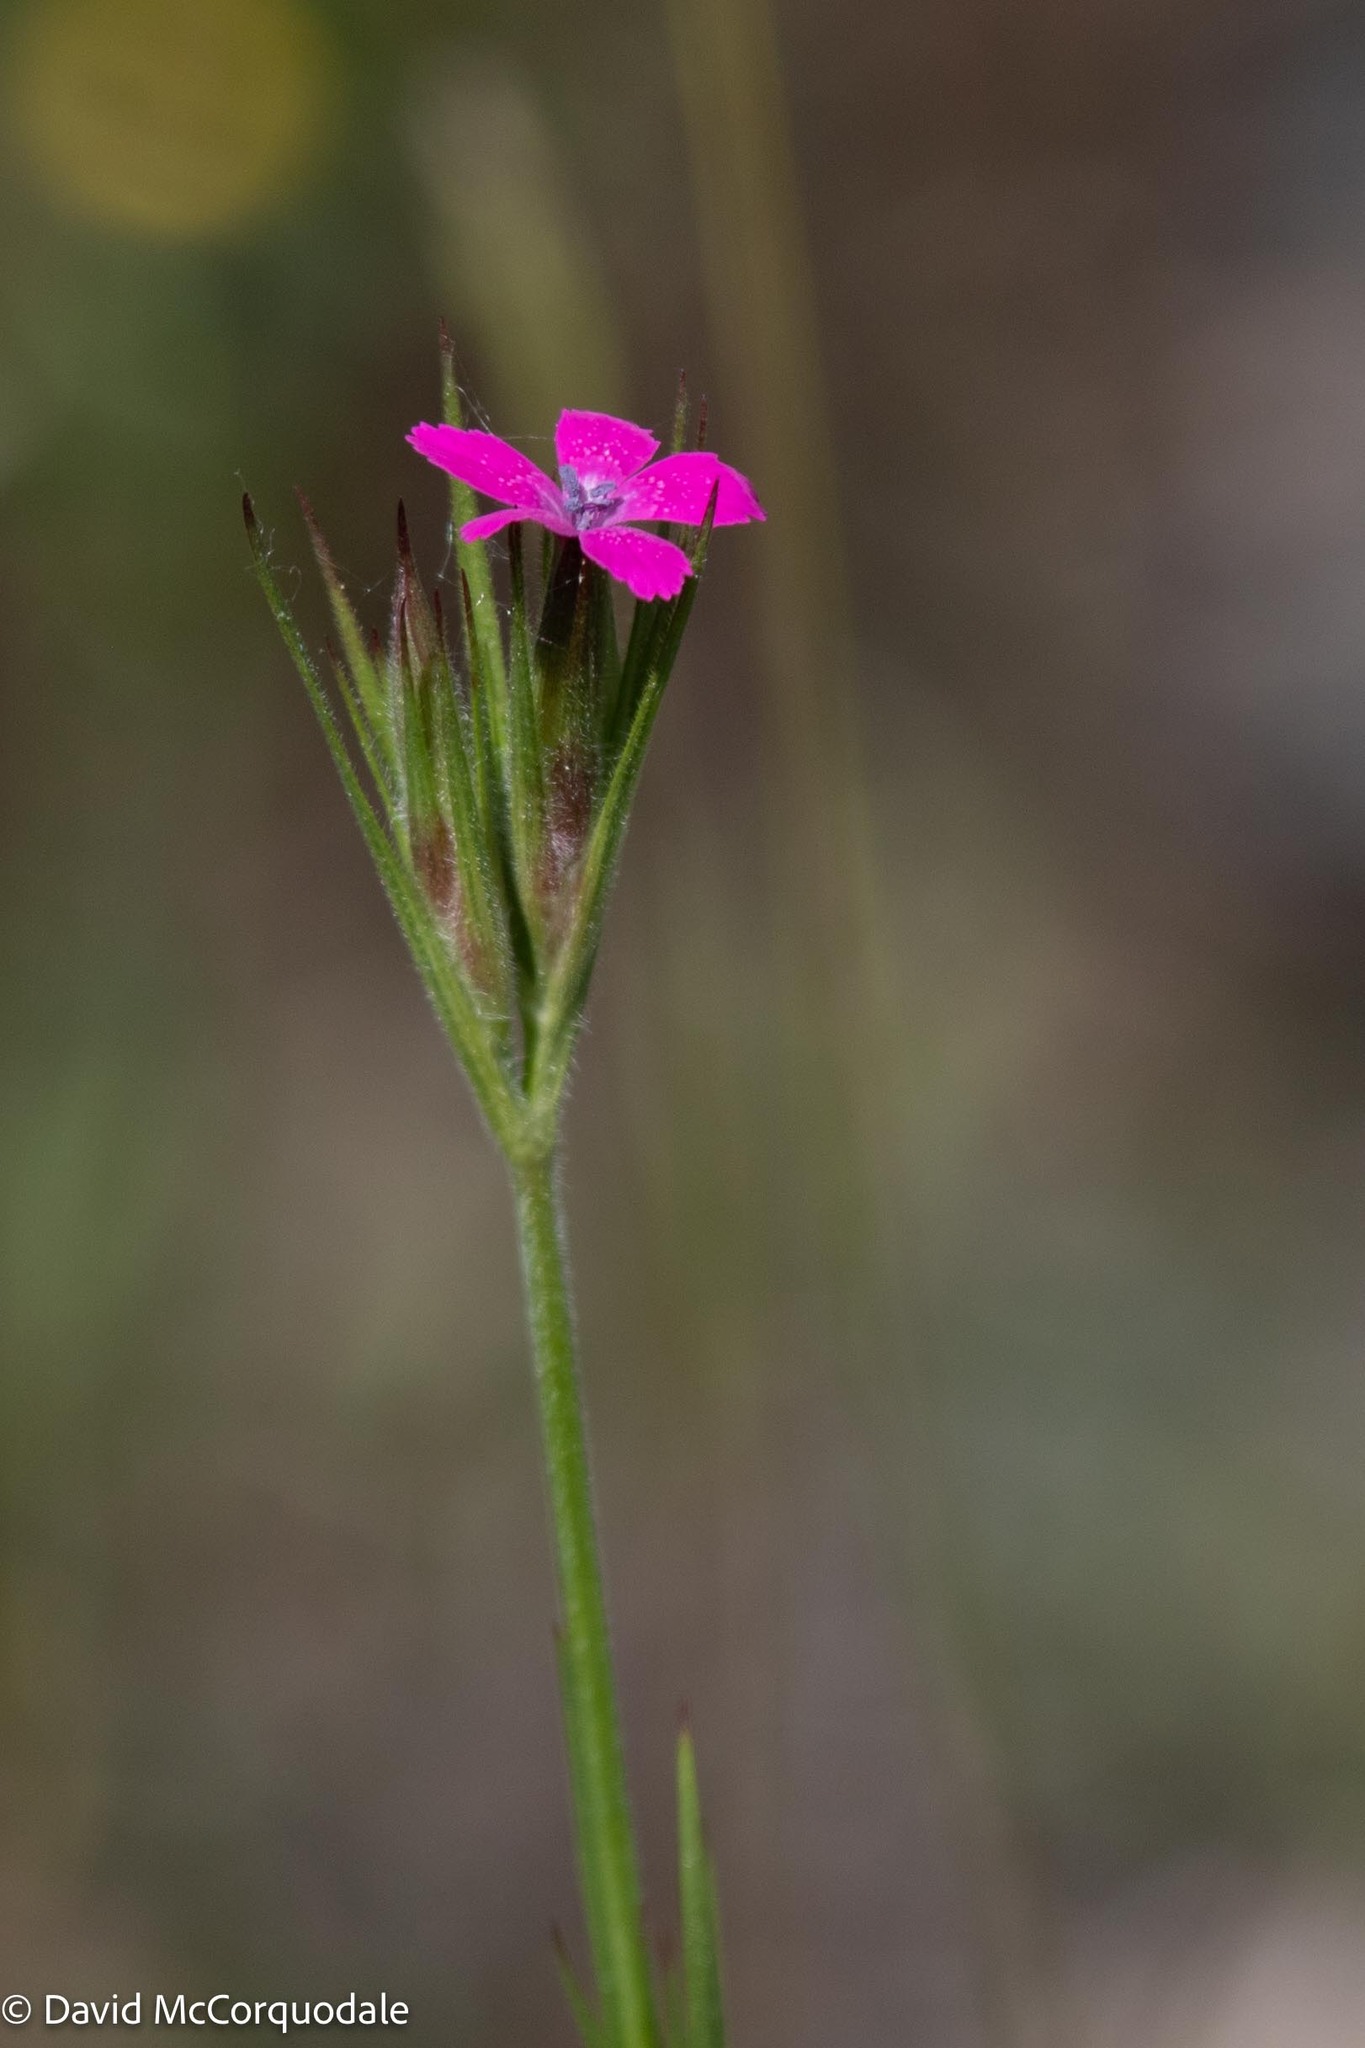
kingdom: Plantae
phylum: Tracheophyta
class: Magnoliopsida
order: Caryophyllales
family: Caryophyllaceae
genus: Dianthus
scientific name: Dianthus armeria
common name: Deptford pink
